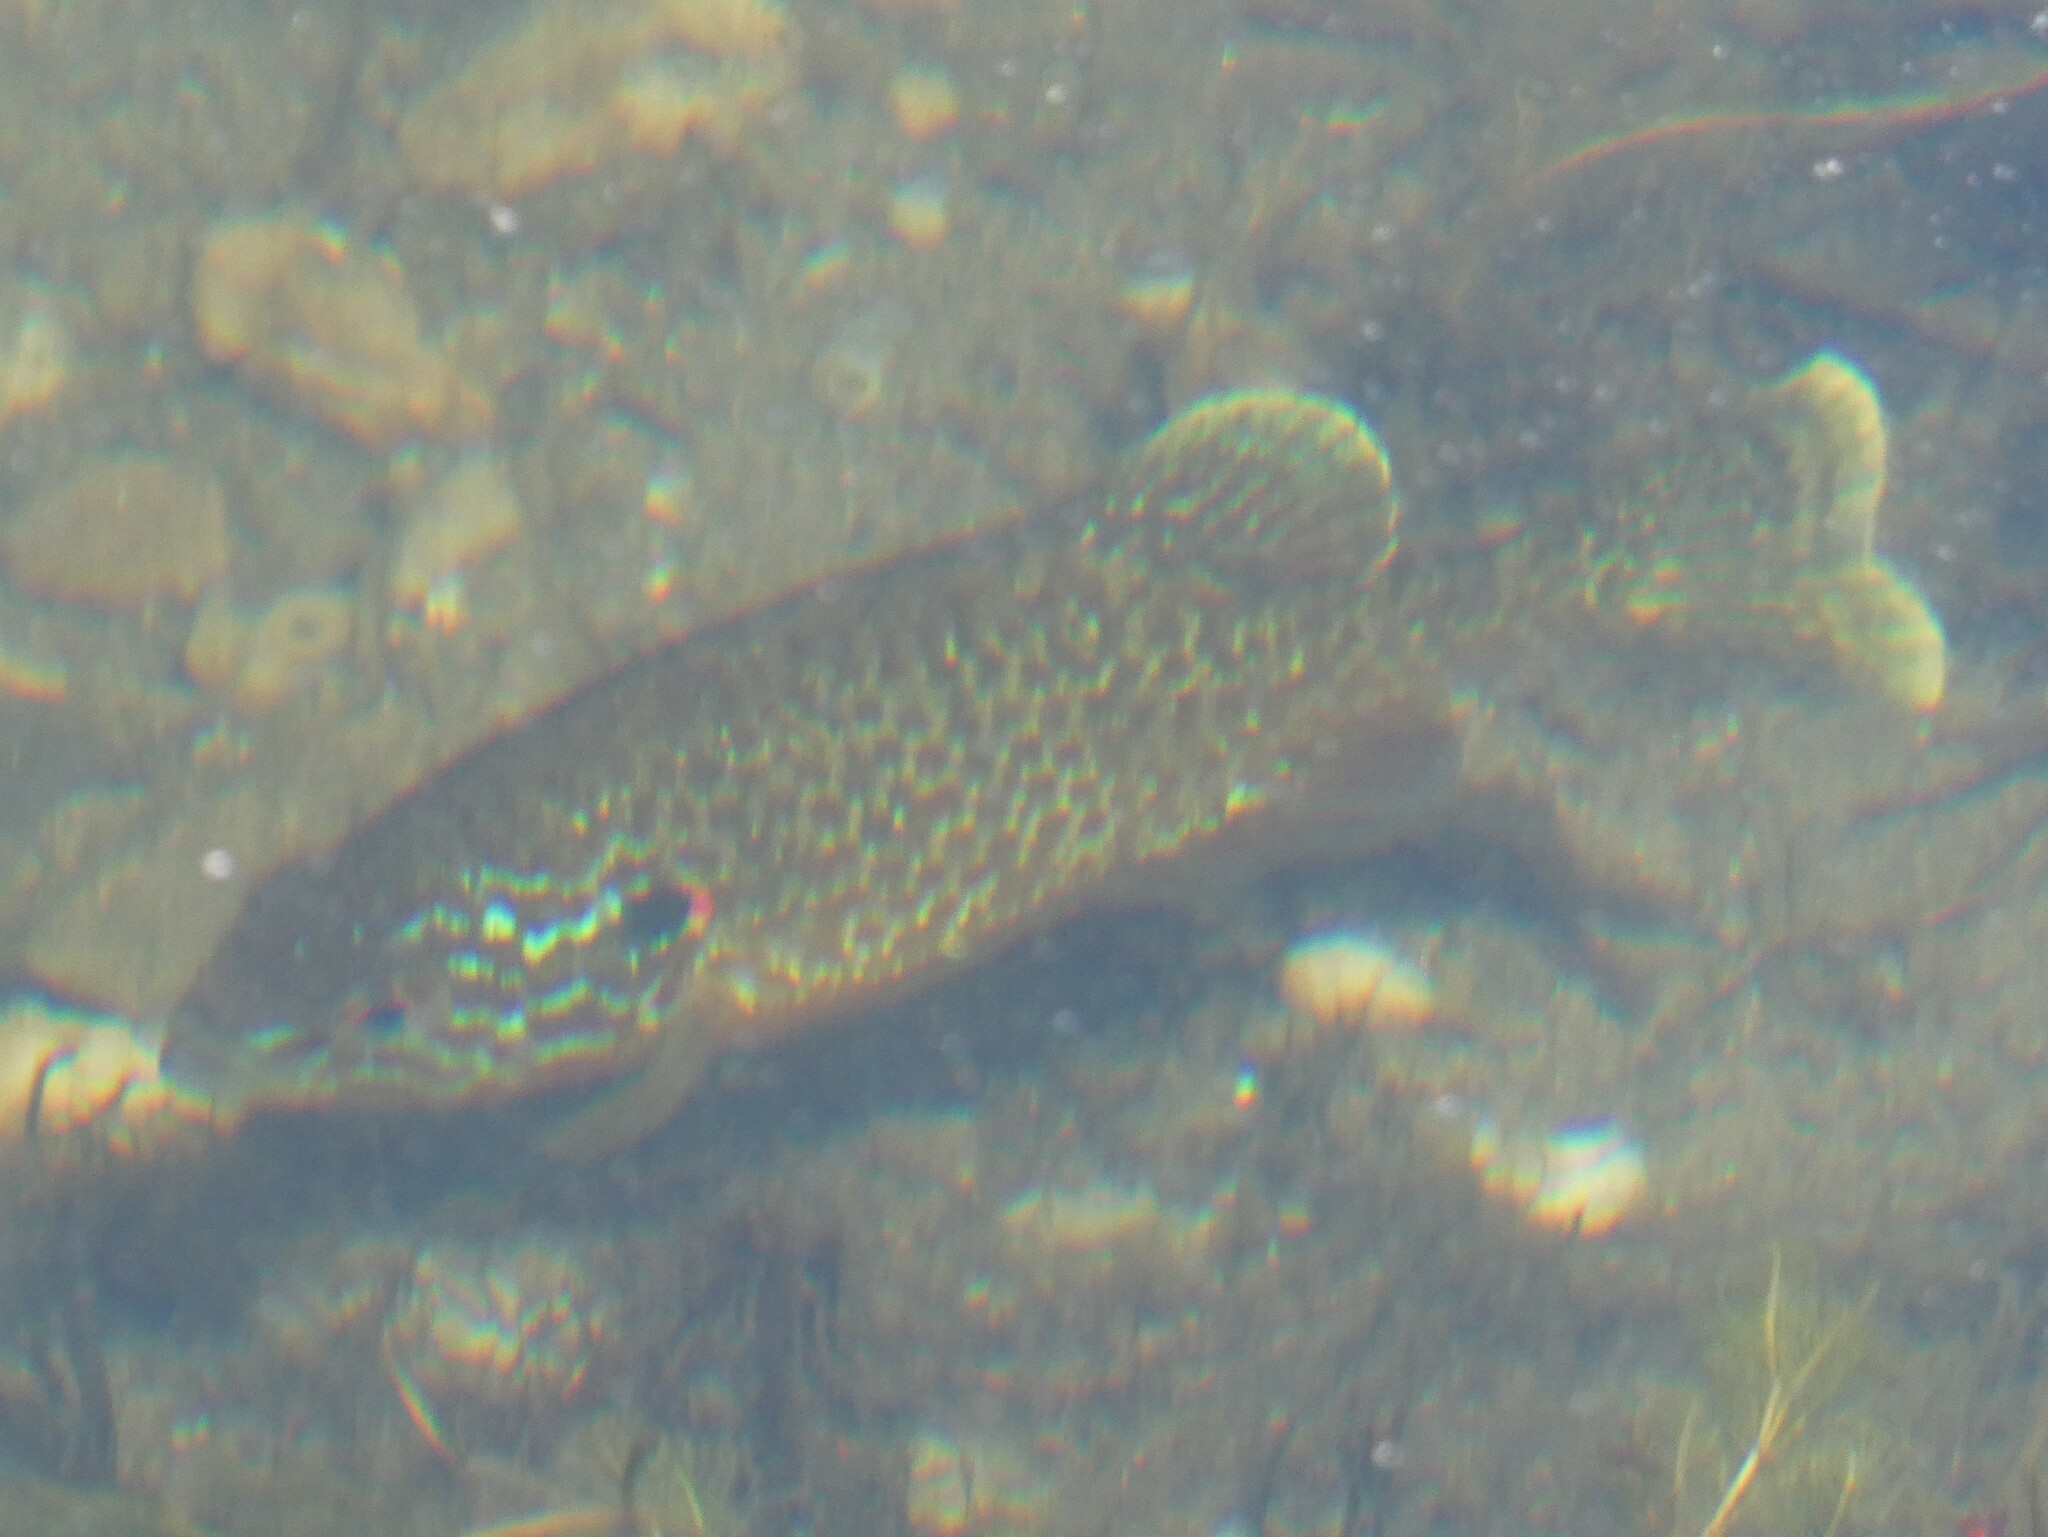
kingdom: Animalia
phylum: Chordata
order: Perciformes
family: Centrarchidae
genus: Lepomis
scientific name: Lepomis gibbosus
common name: Pumpkinseed
